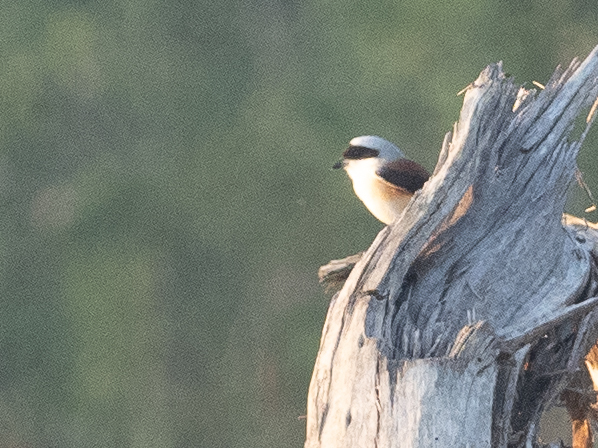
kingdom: Animalia
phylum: Chordata
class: Aves
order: Passeriformes
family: Laniidae
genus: Lanius
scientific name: Lanius vittatus
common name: Bay-backed shrike
